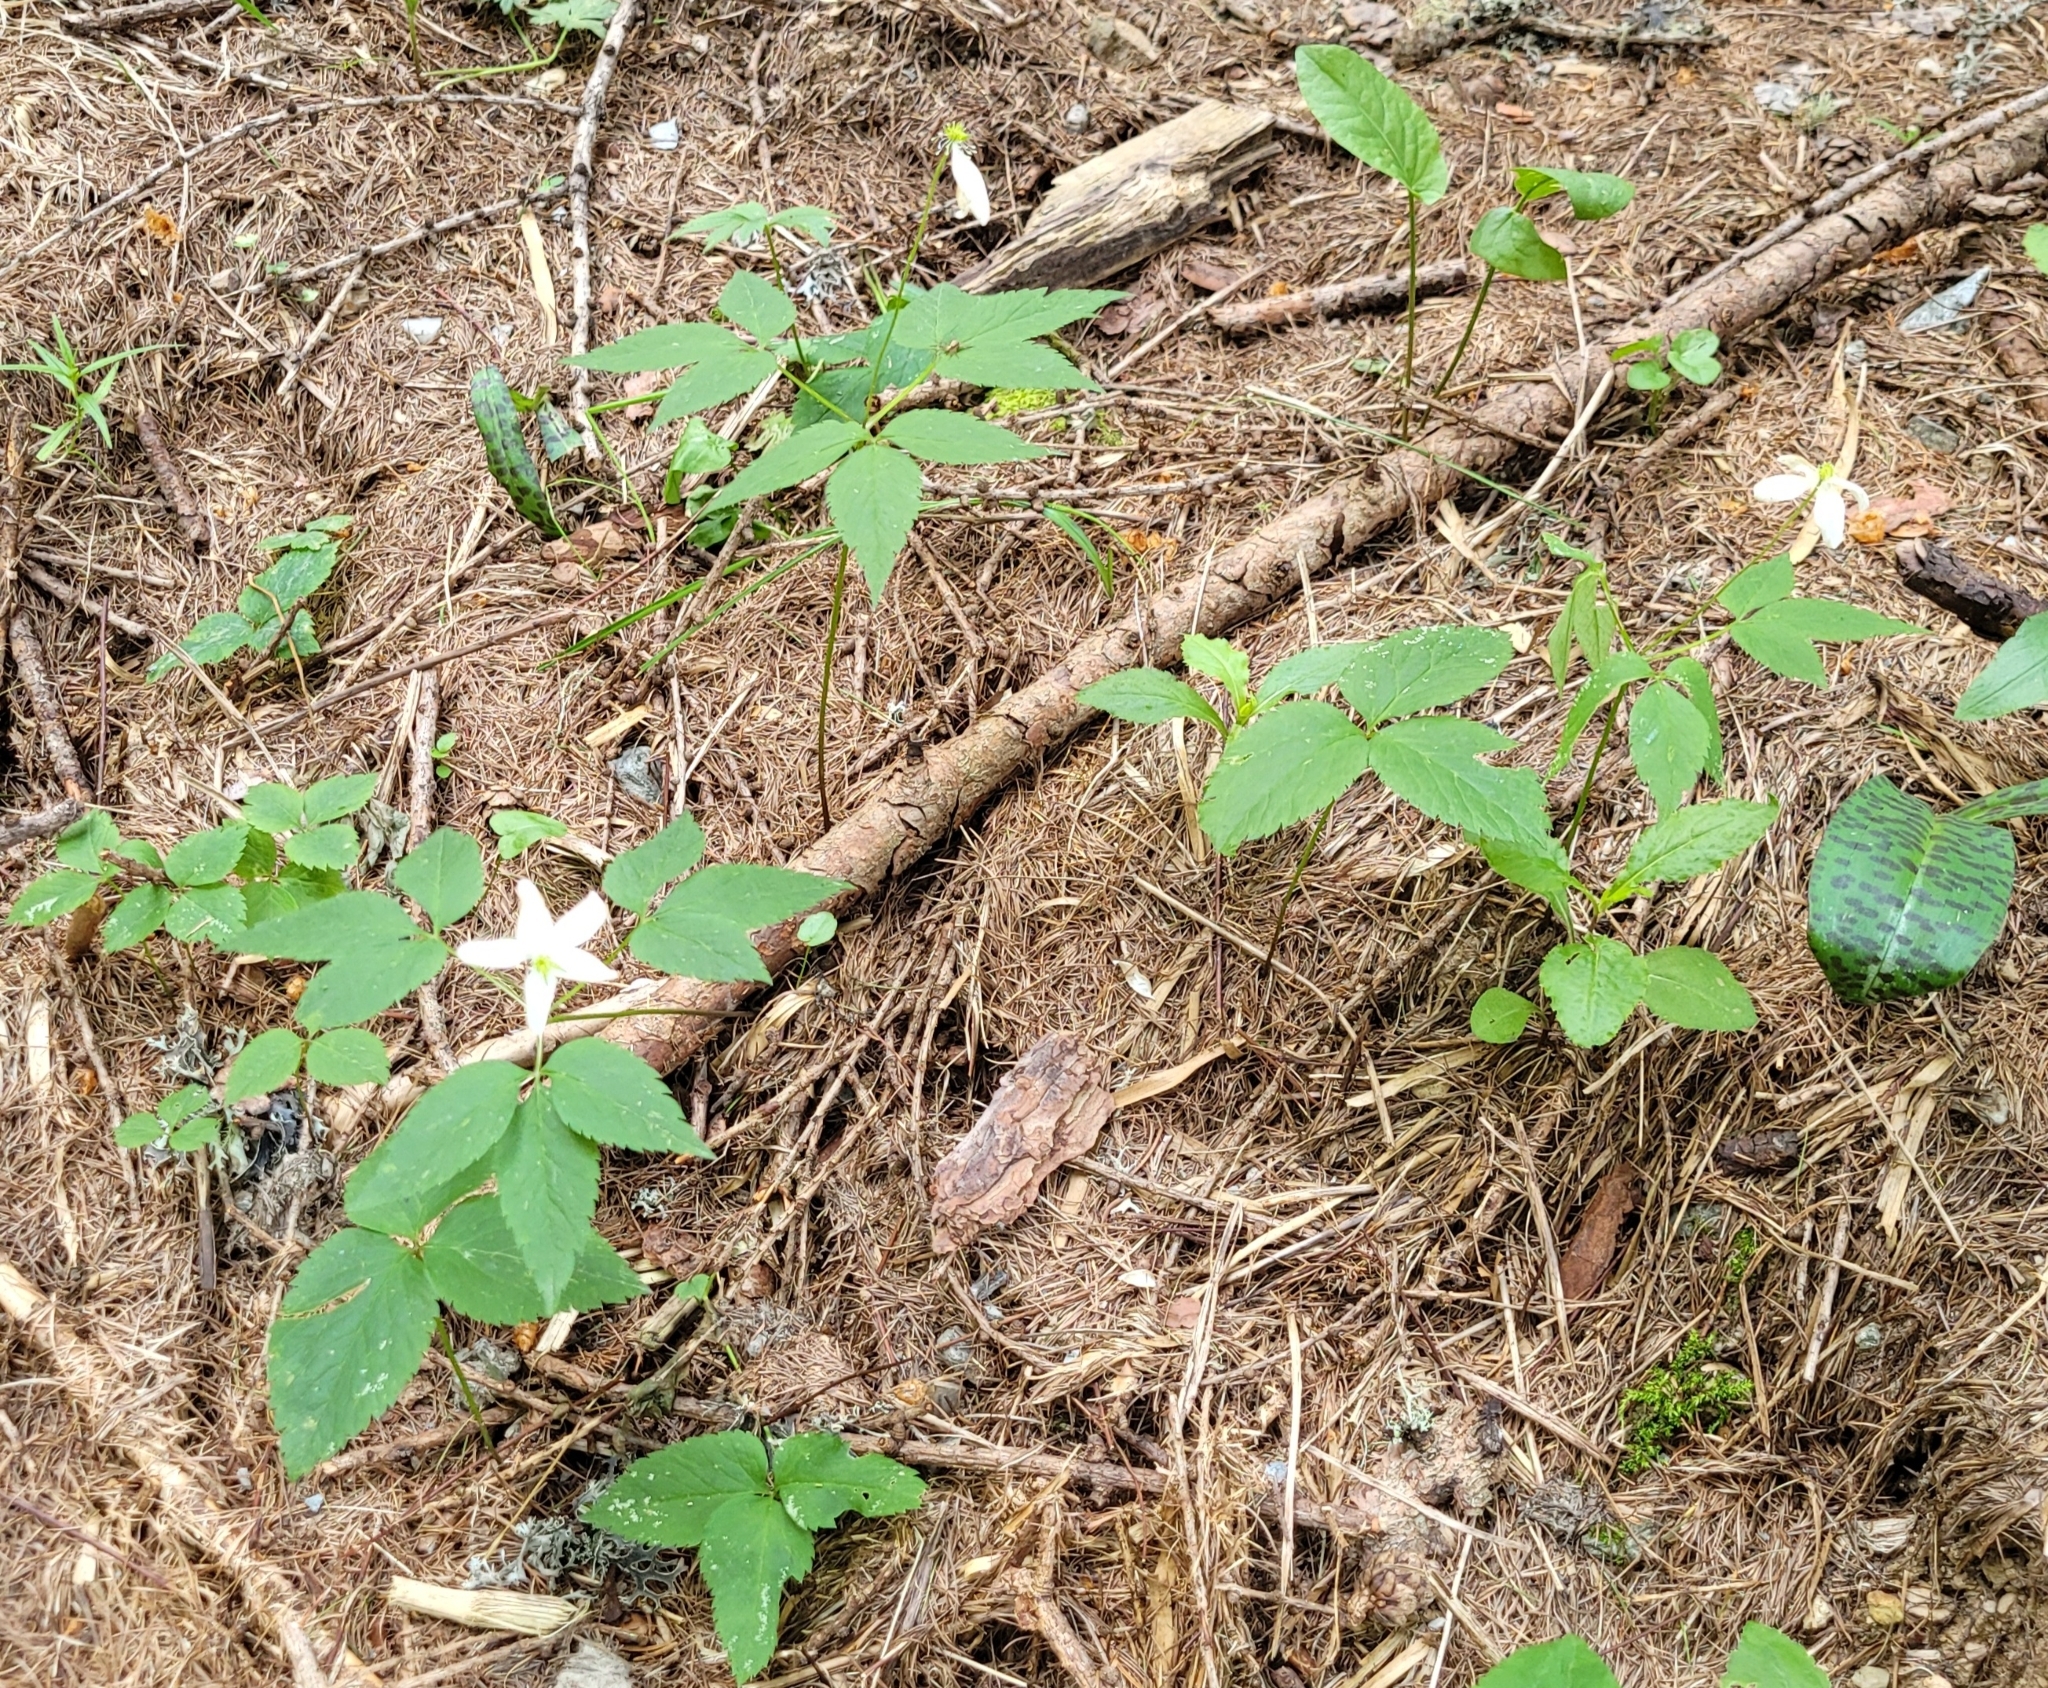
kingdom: Plantae
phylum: Tracheophyta
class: Magnoliopsida
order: Ranunculales
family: Ranunculaceae
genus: Anemone
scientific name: Anemone trifolia
